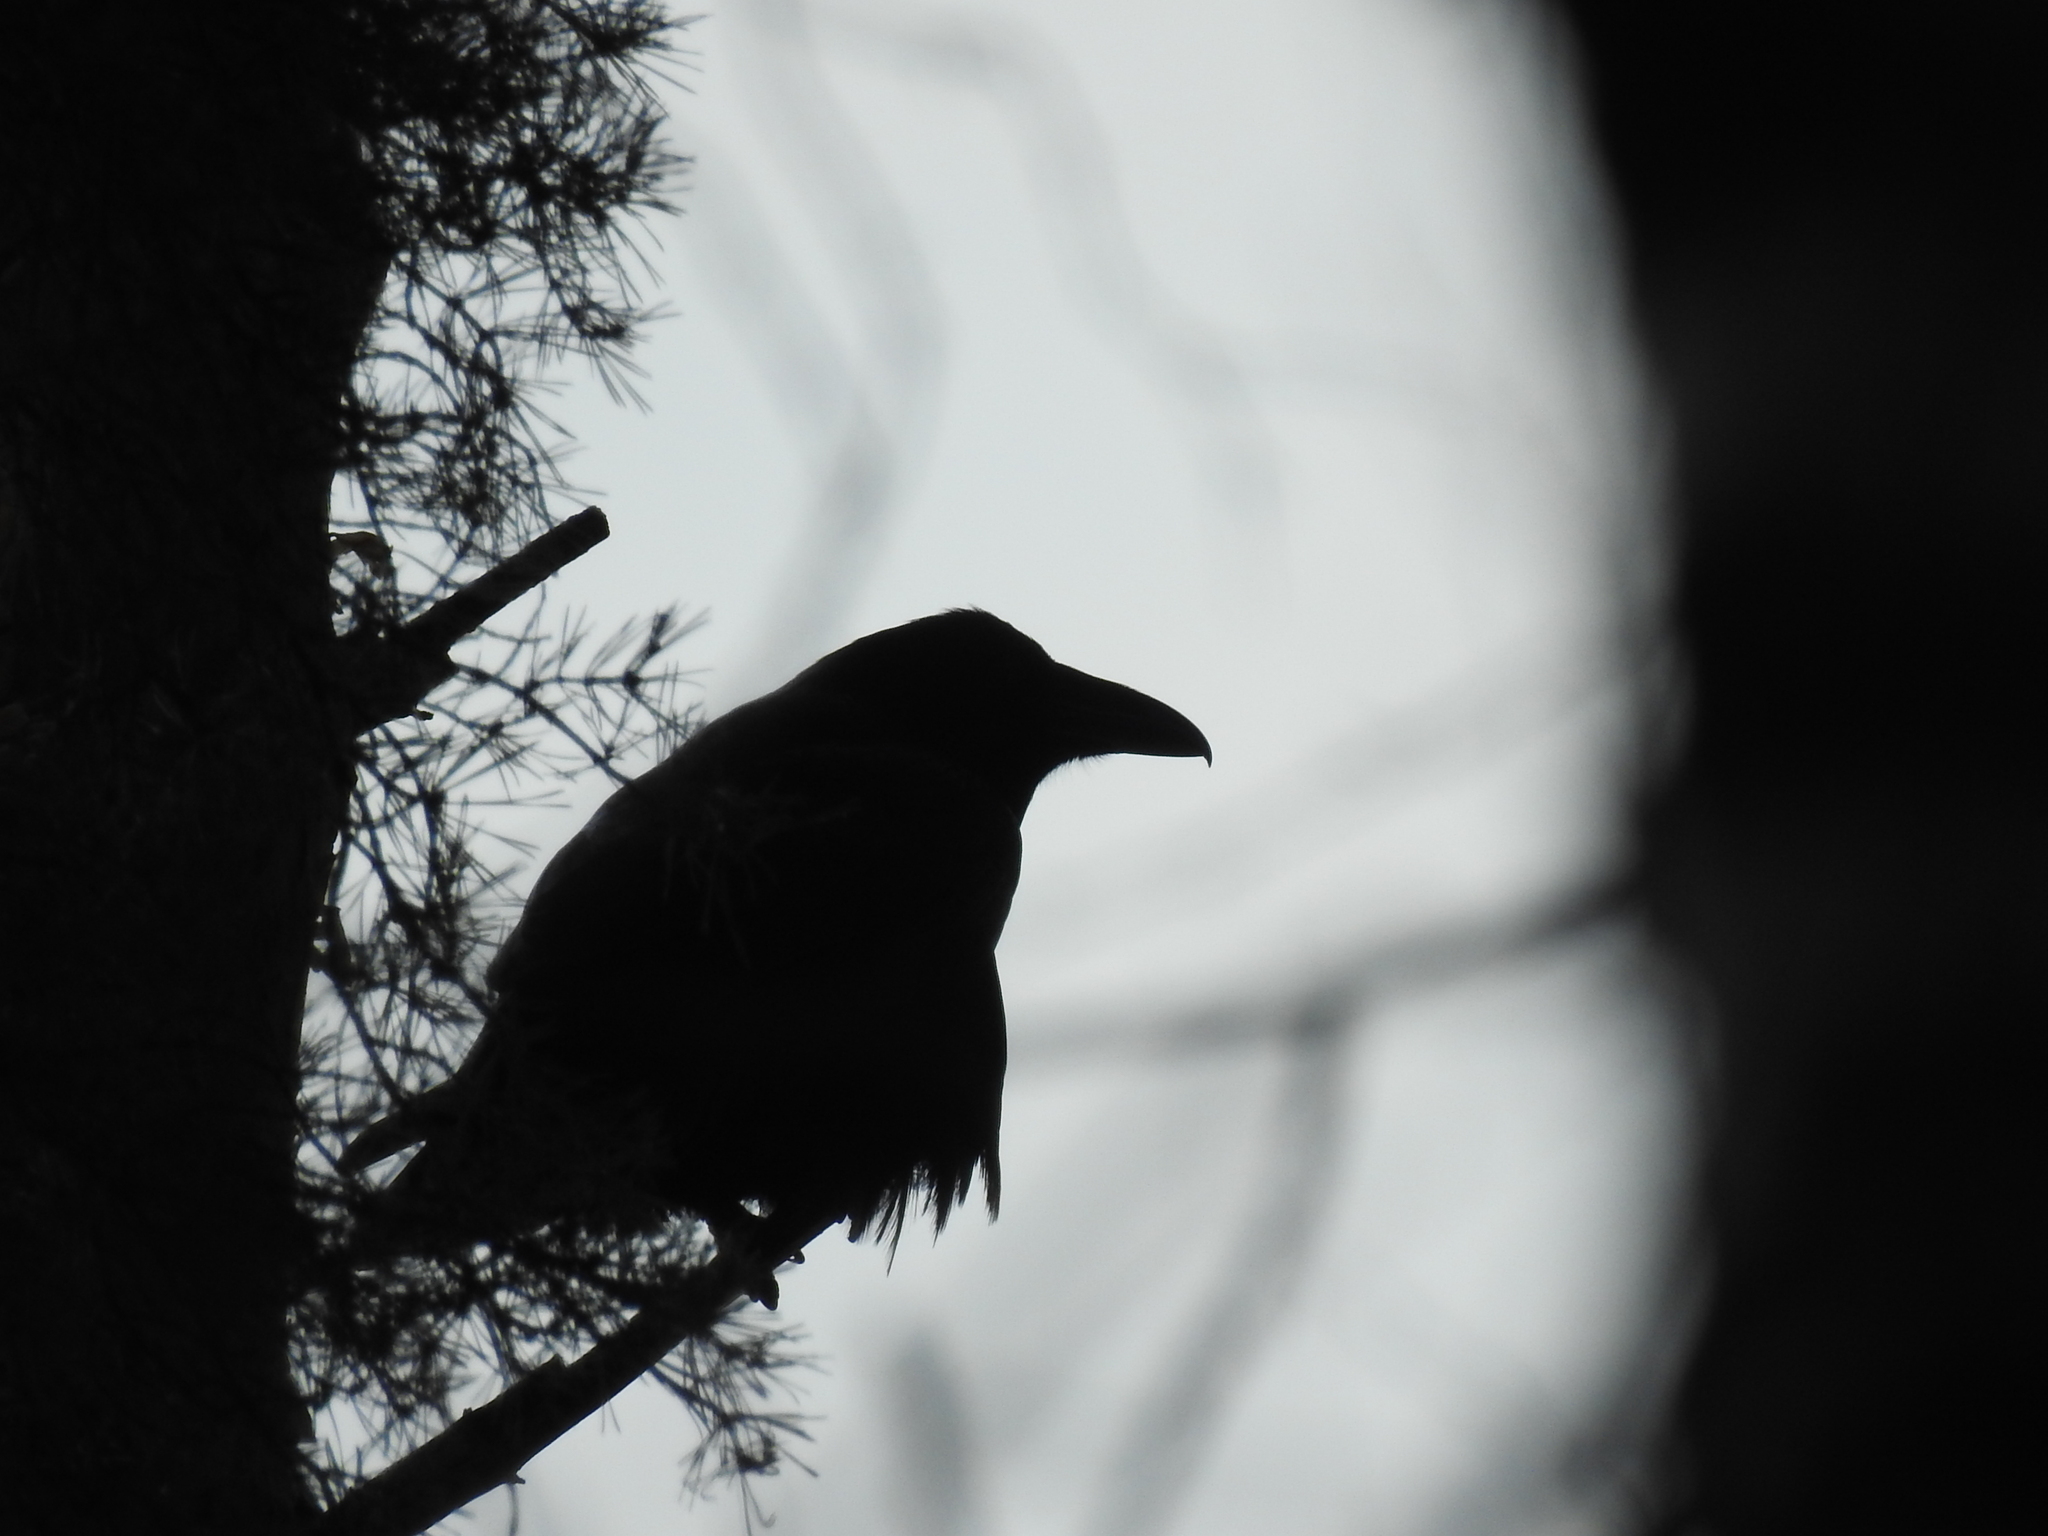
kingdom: Animalia
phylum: Chordata
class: Aves
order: Passeriformes
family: Corvidae
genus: Corvus
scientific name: Corvus corax
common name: Common raven
